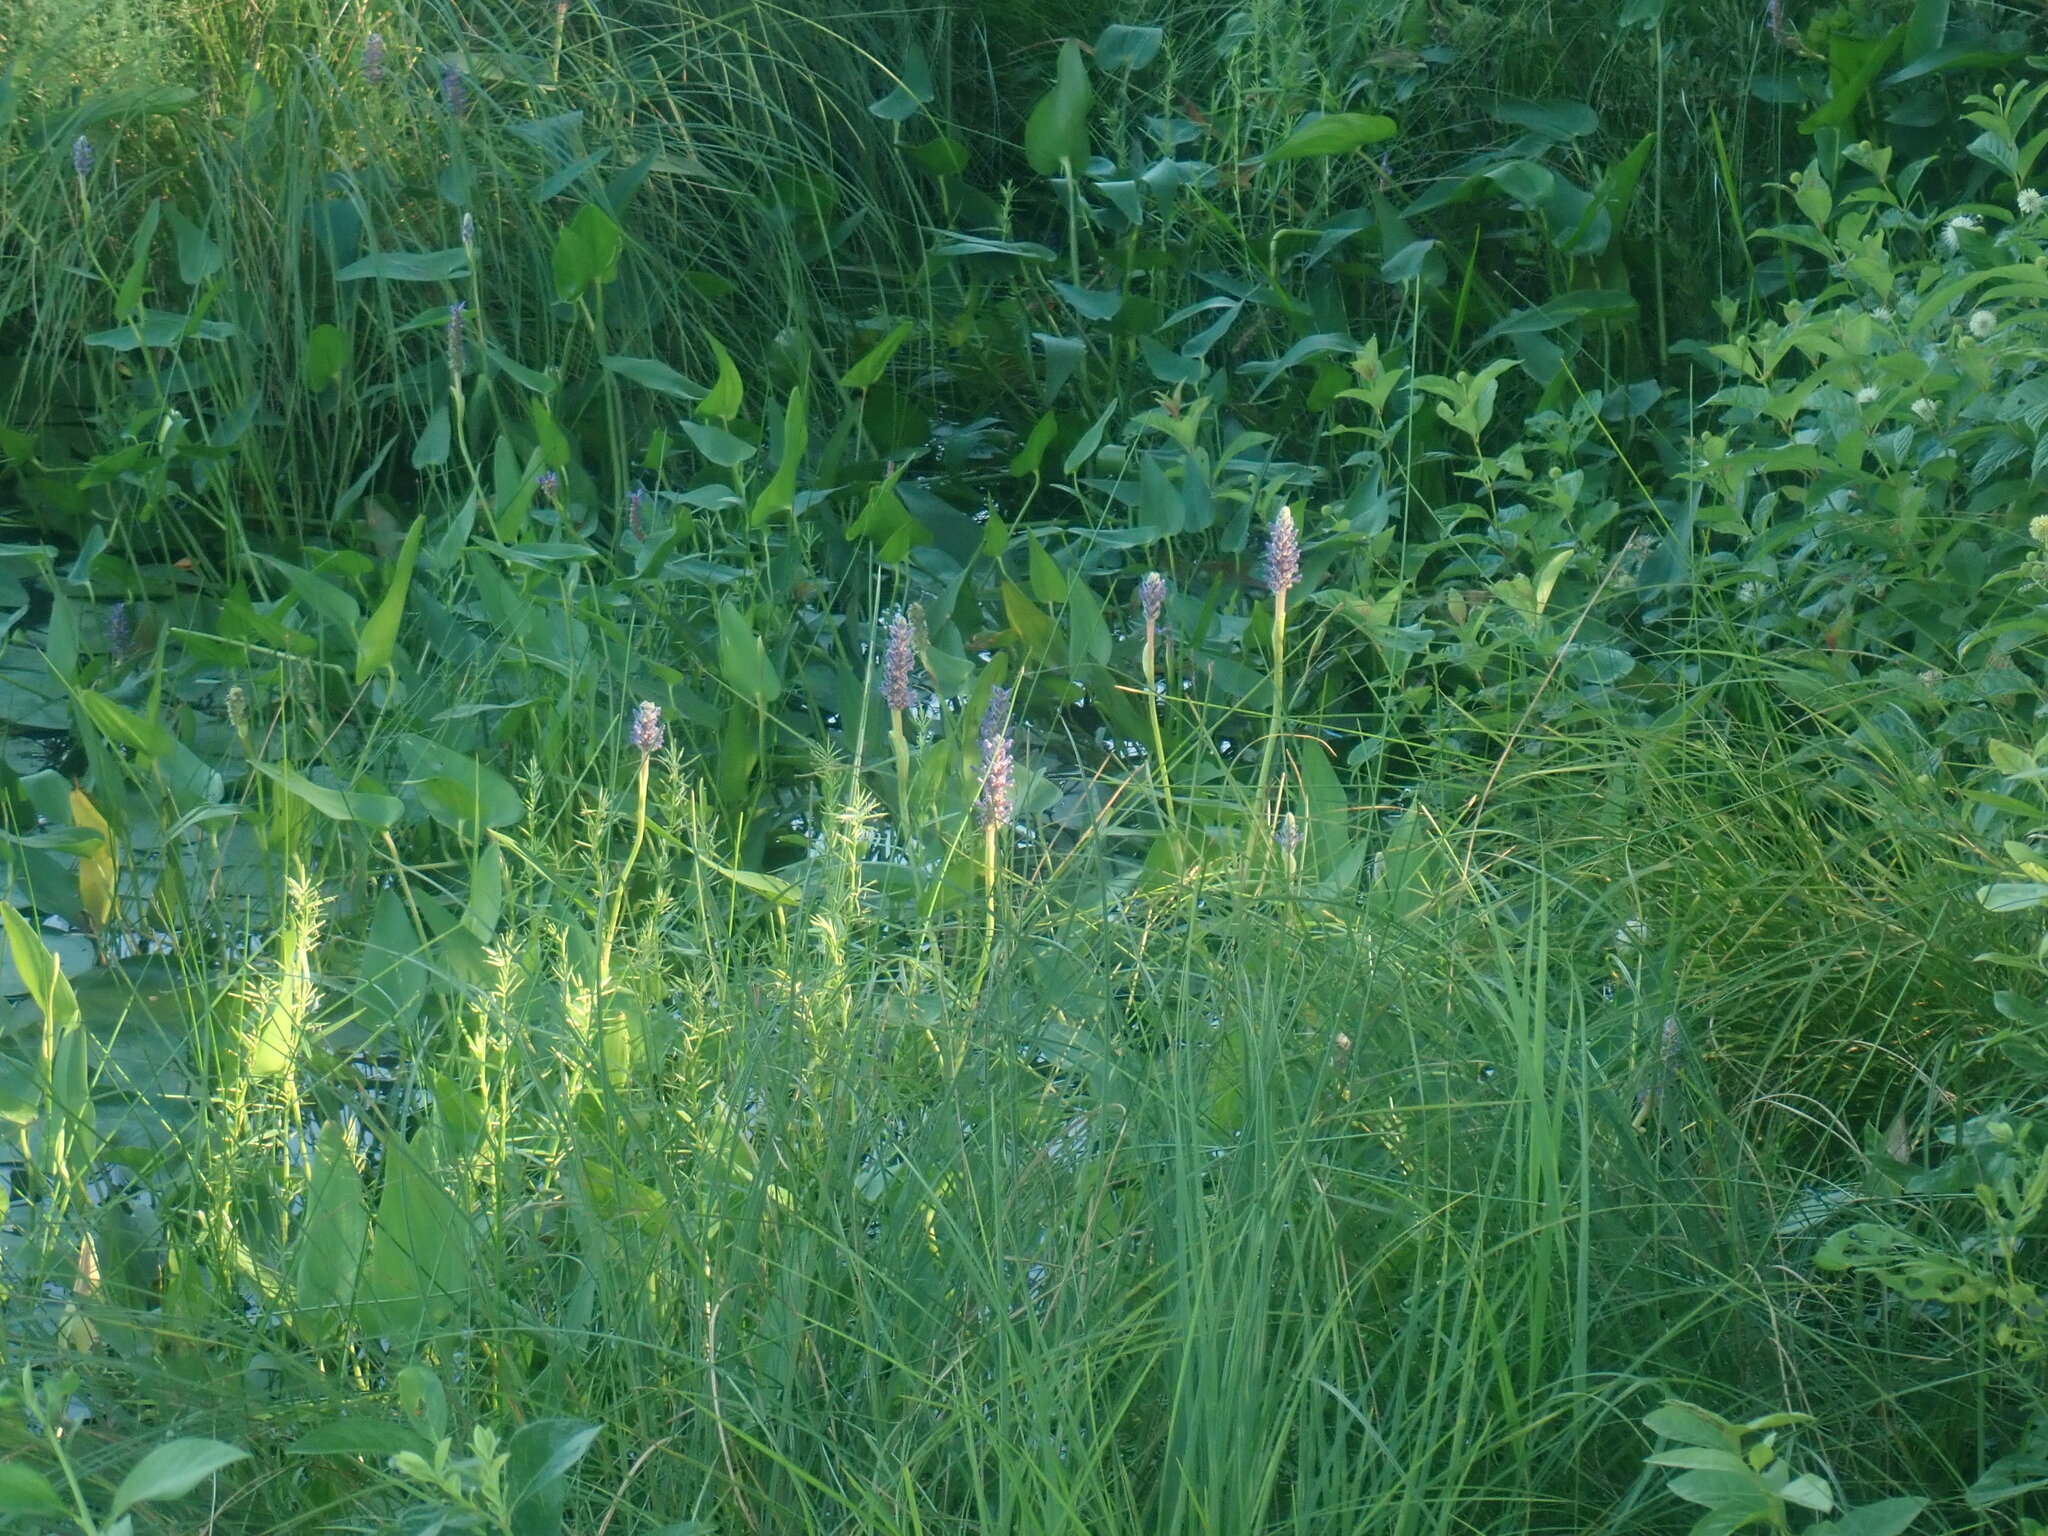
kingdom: Plantae
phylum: Tracheophyta
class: Liliopsida
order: Commelinales
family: Pontederiaceae
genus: Pontederia
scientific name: Pontederia cordata
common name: Pickerelweed
